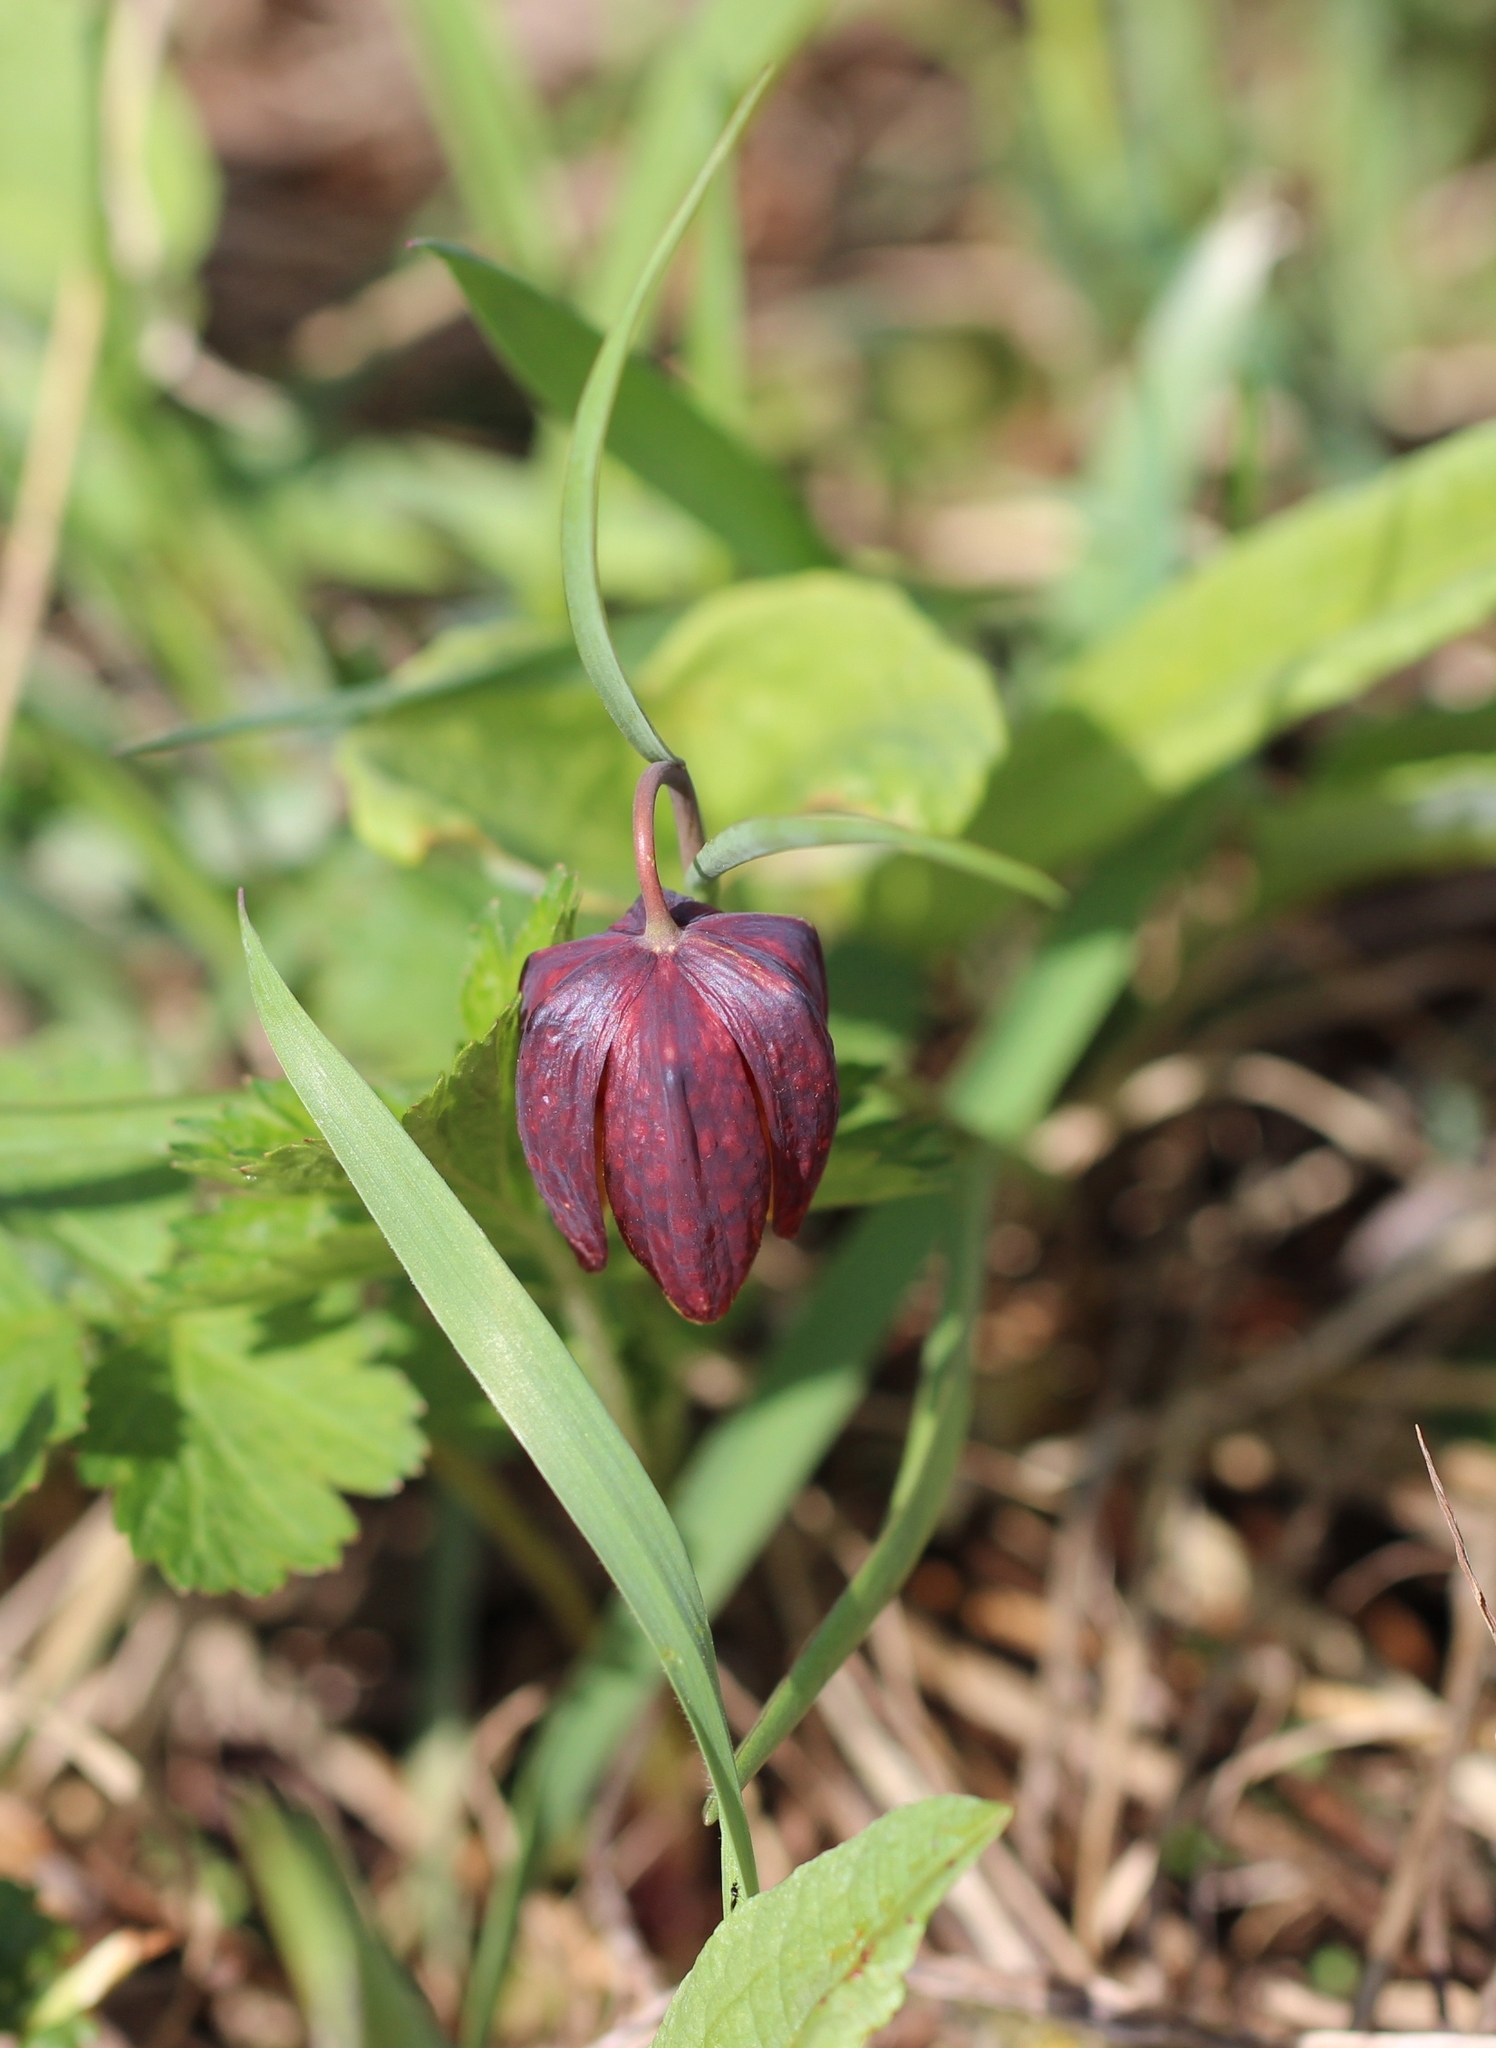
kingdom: Plantae
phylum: Tracheophyta
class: Liliopsida
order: Liliales
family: Liliaceae
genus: Fritillaria
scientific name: Fritillaria meleagris
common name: Fritillary
